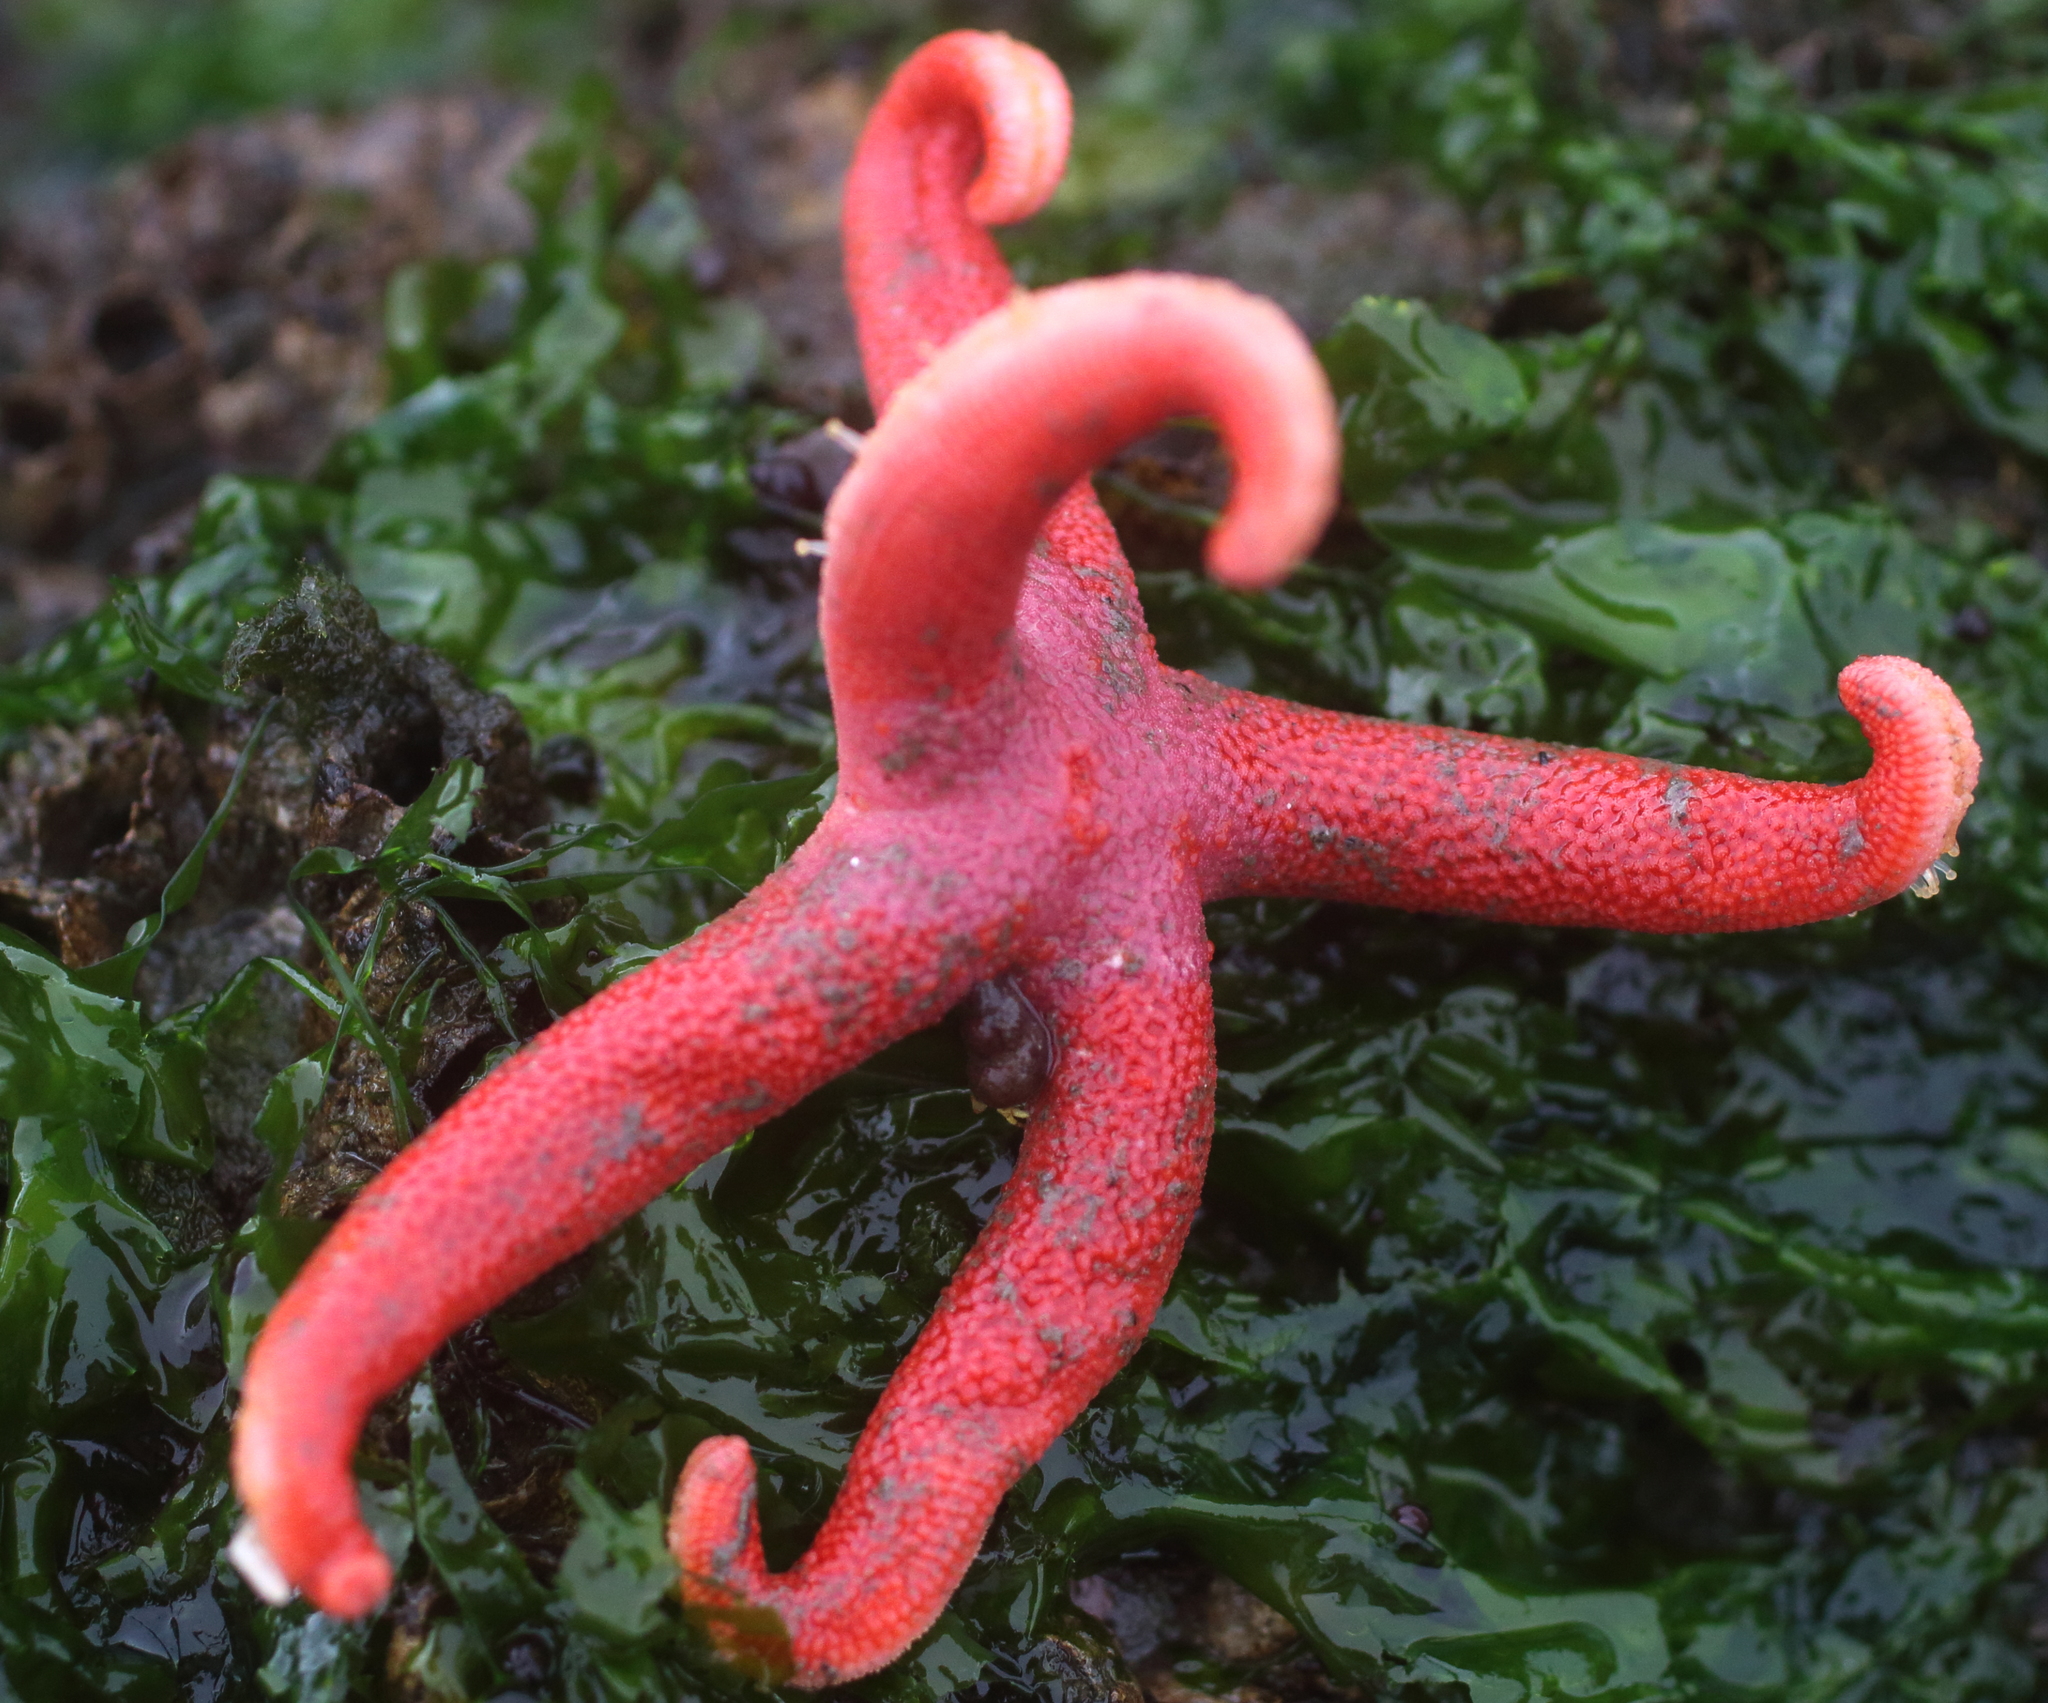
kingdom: Animalia
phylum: Echinodermata
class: Asteroidea
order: Spinulosida
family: Echinasteridae
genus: Henricia
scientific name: Henricia leviuscula
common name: Pacific blood star
